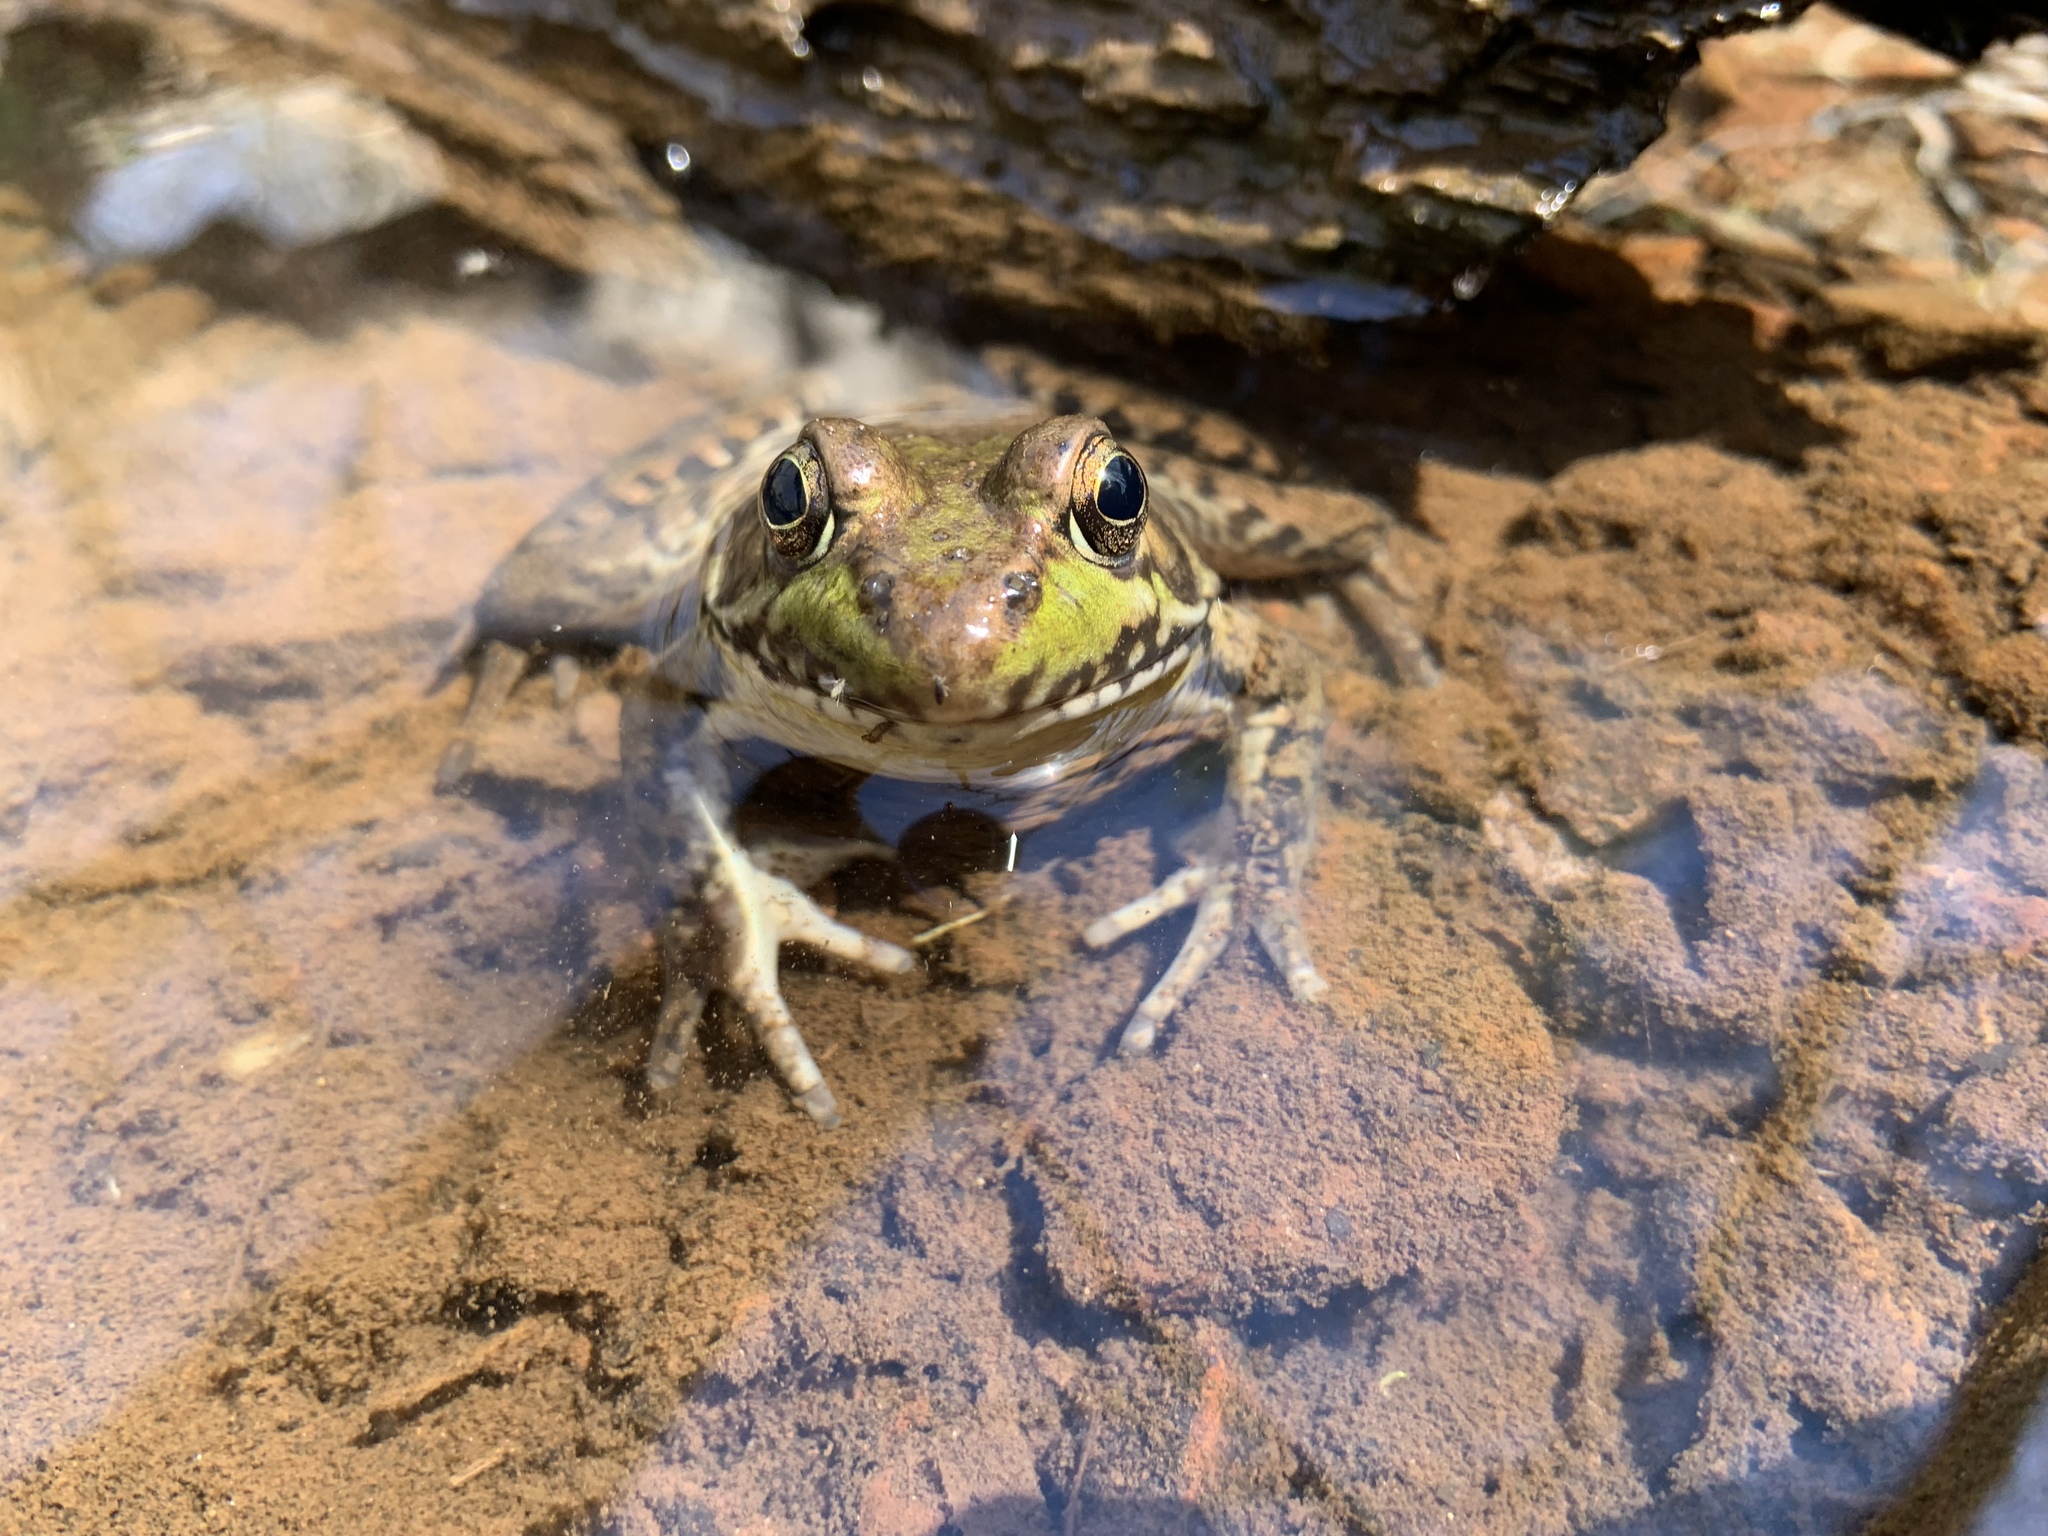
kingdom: Animalia
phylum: Chordata
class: Amphibia
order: Anura
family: Ranidae
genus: Lithobates
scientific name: Lithobates clamitans
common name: Green frog
